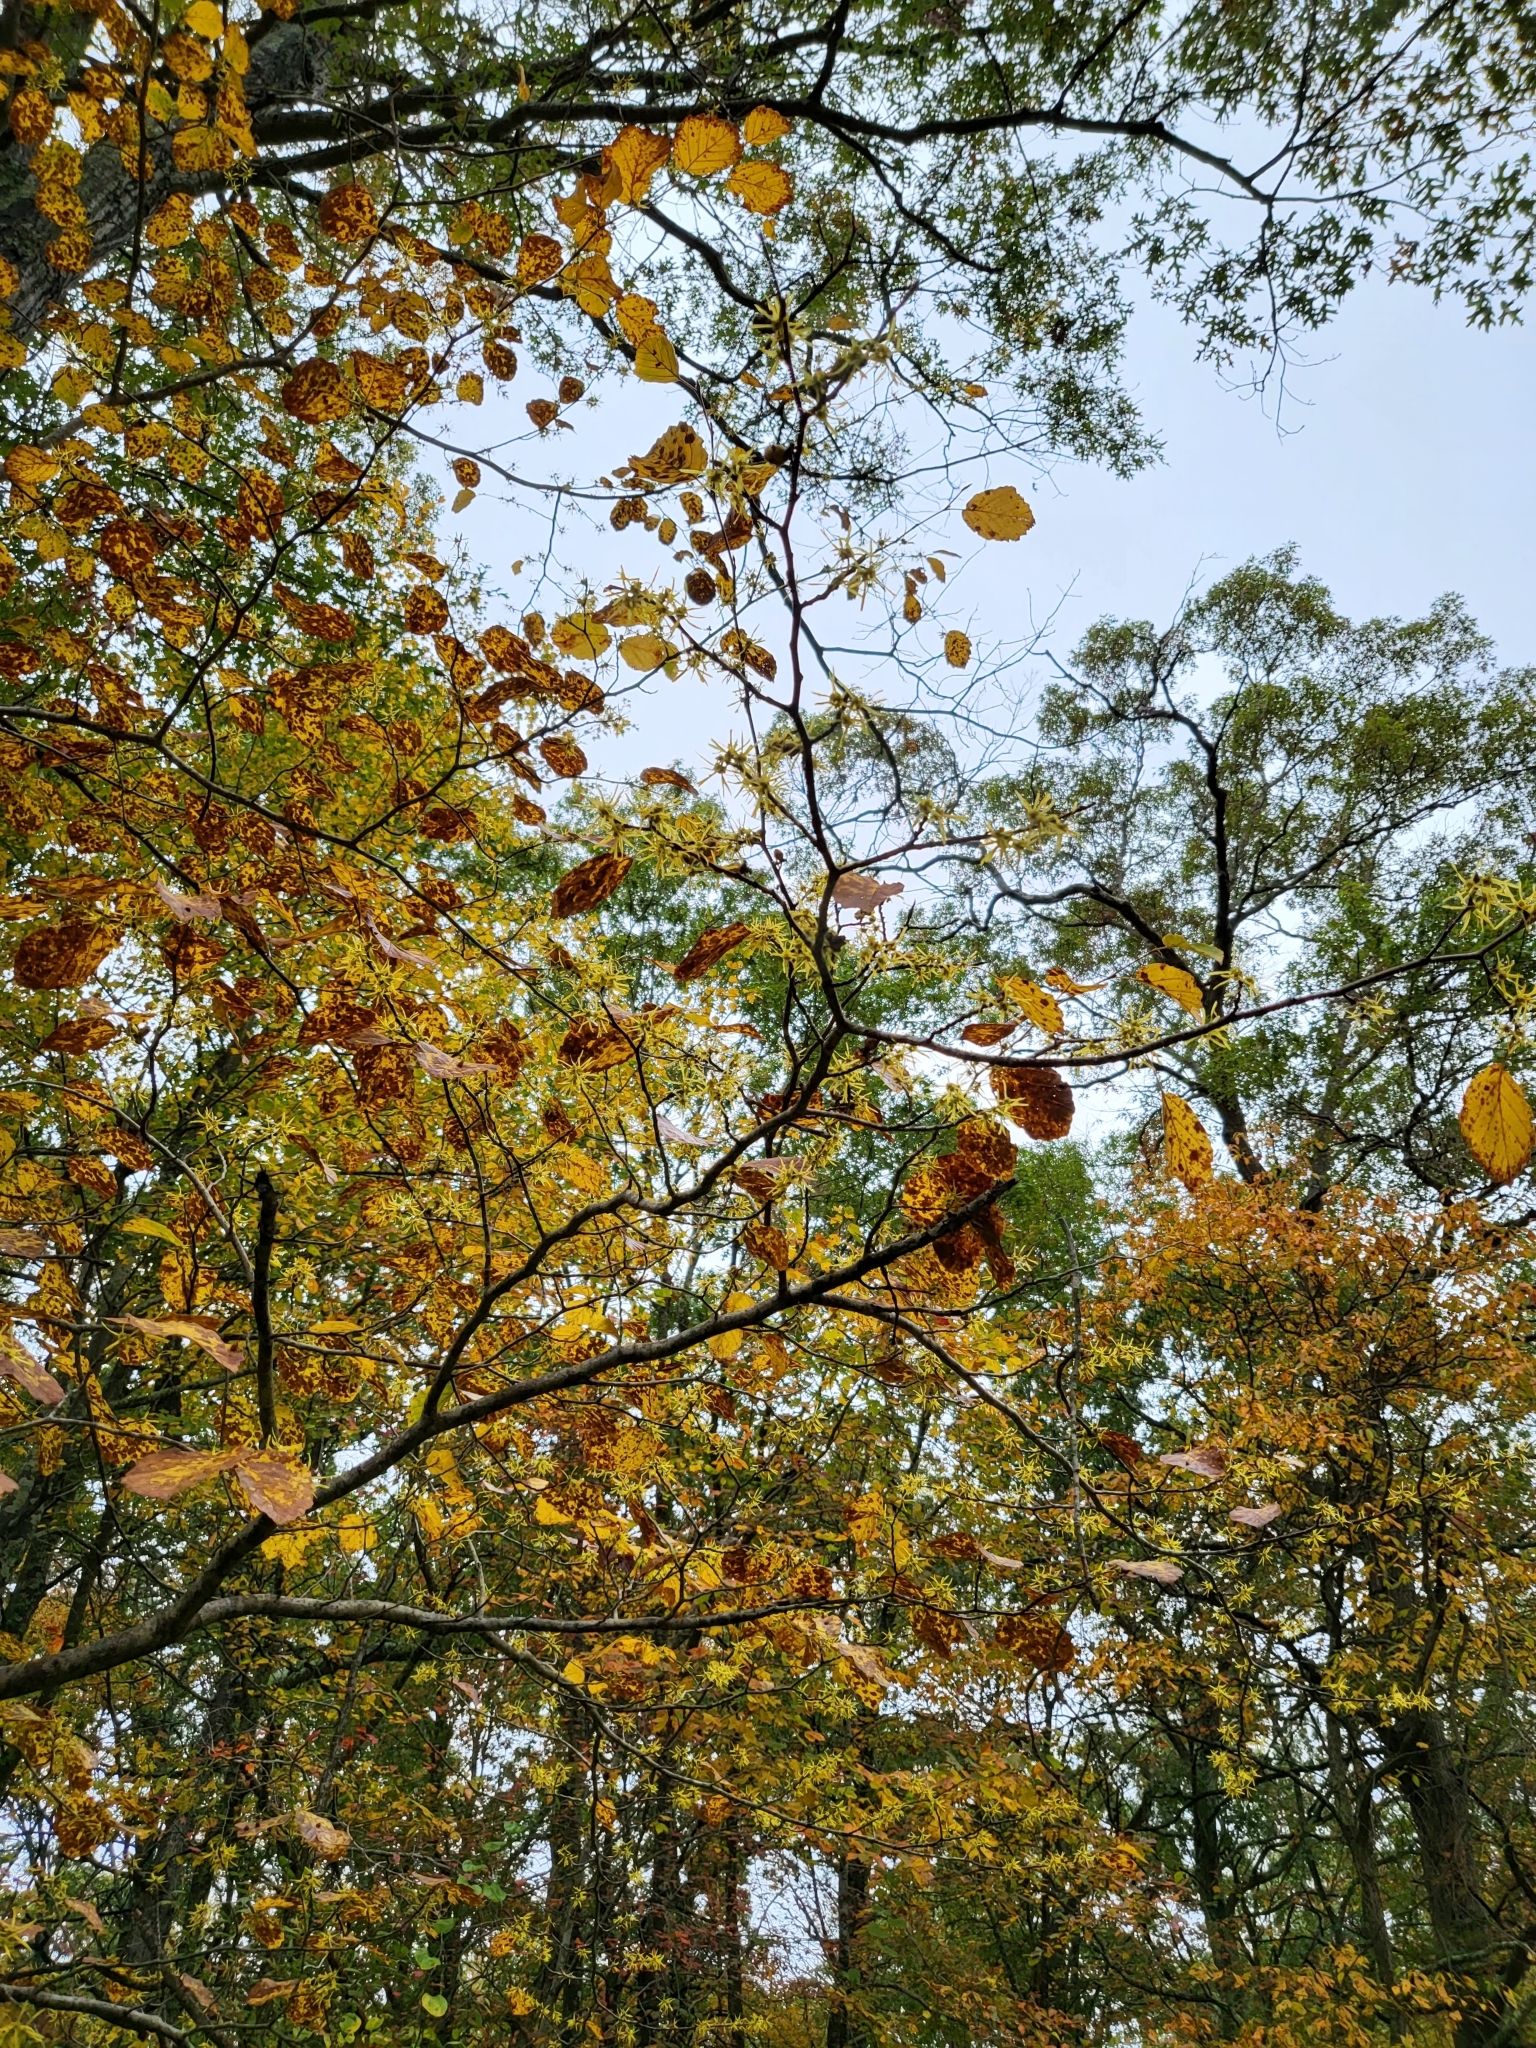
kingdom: Plantae
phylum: Tracheophyta
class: Magnoliopsida
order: Saxifragales
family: Hamamelidaceae
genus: Hamamelis
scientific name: Hamamelis virginiana
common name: Witch-hazel
